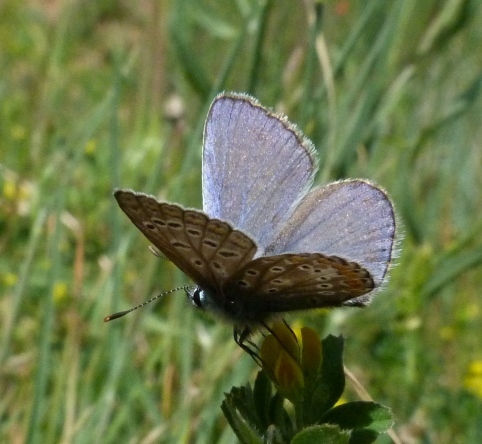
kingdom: Animalia
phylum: Arthropoda
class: Insecta
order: Lepidoptera
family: Lycaenidae
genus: Polyommatus
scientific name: Polyommatus icarus
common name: Common blue
